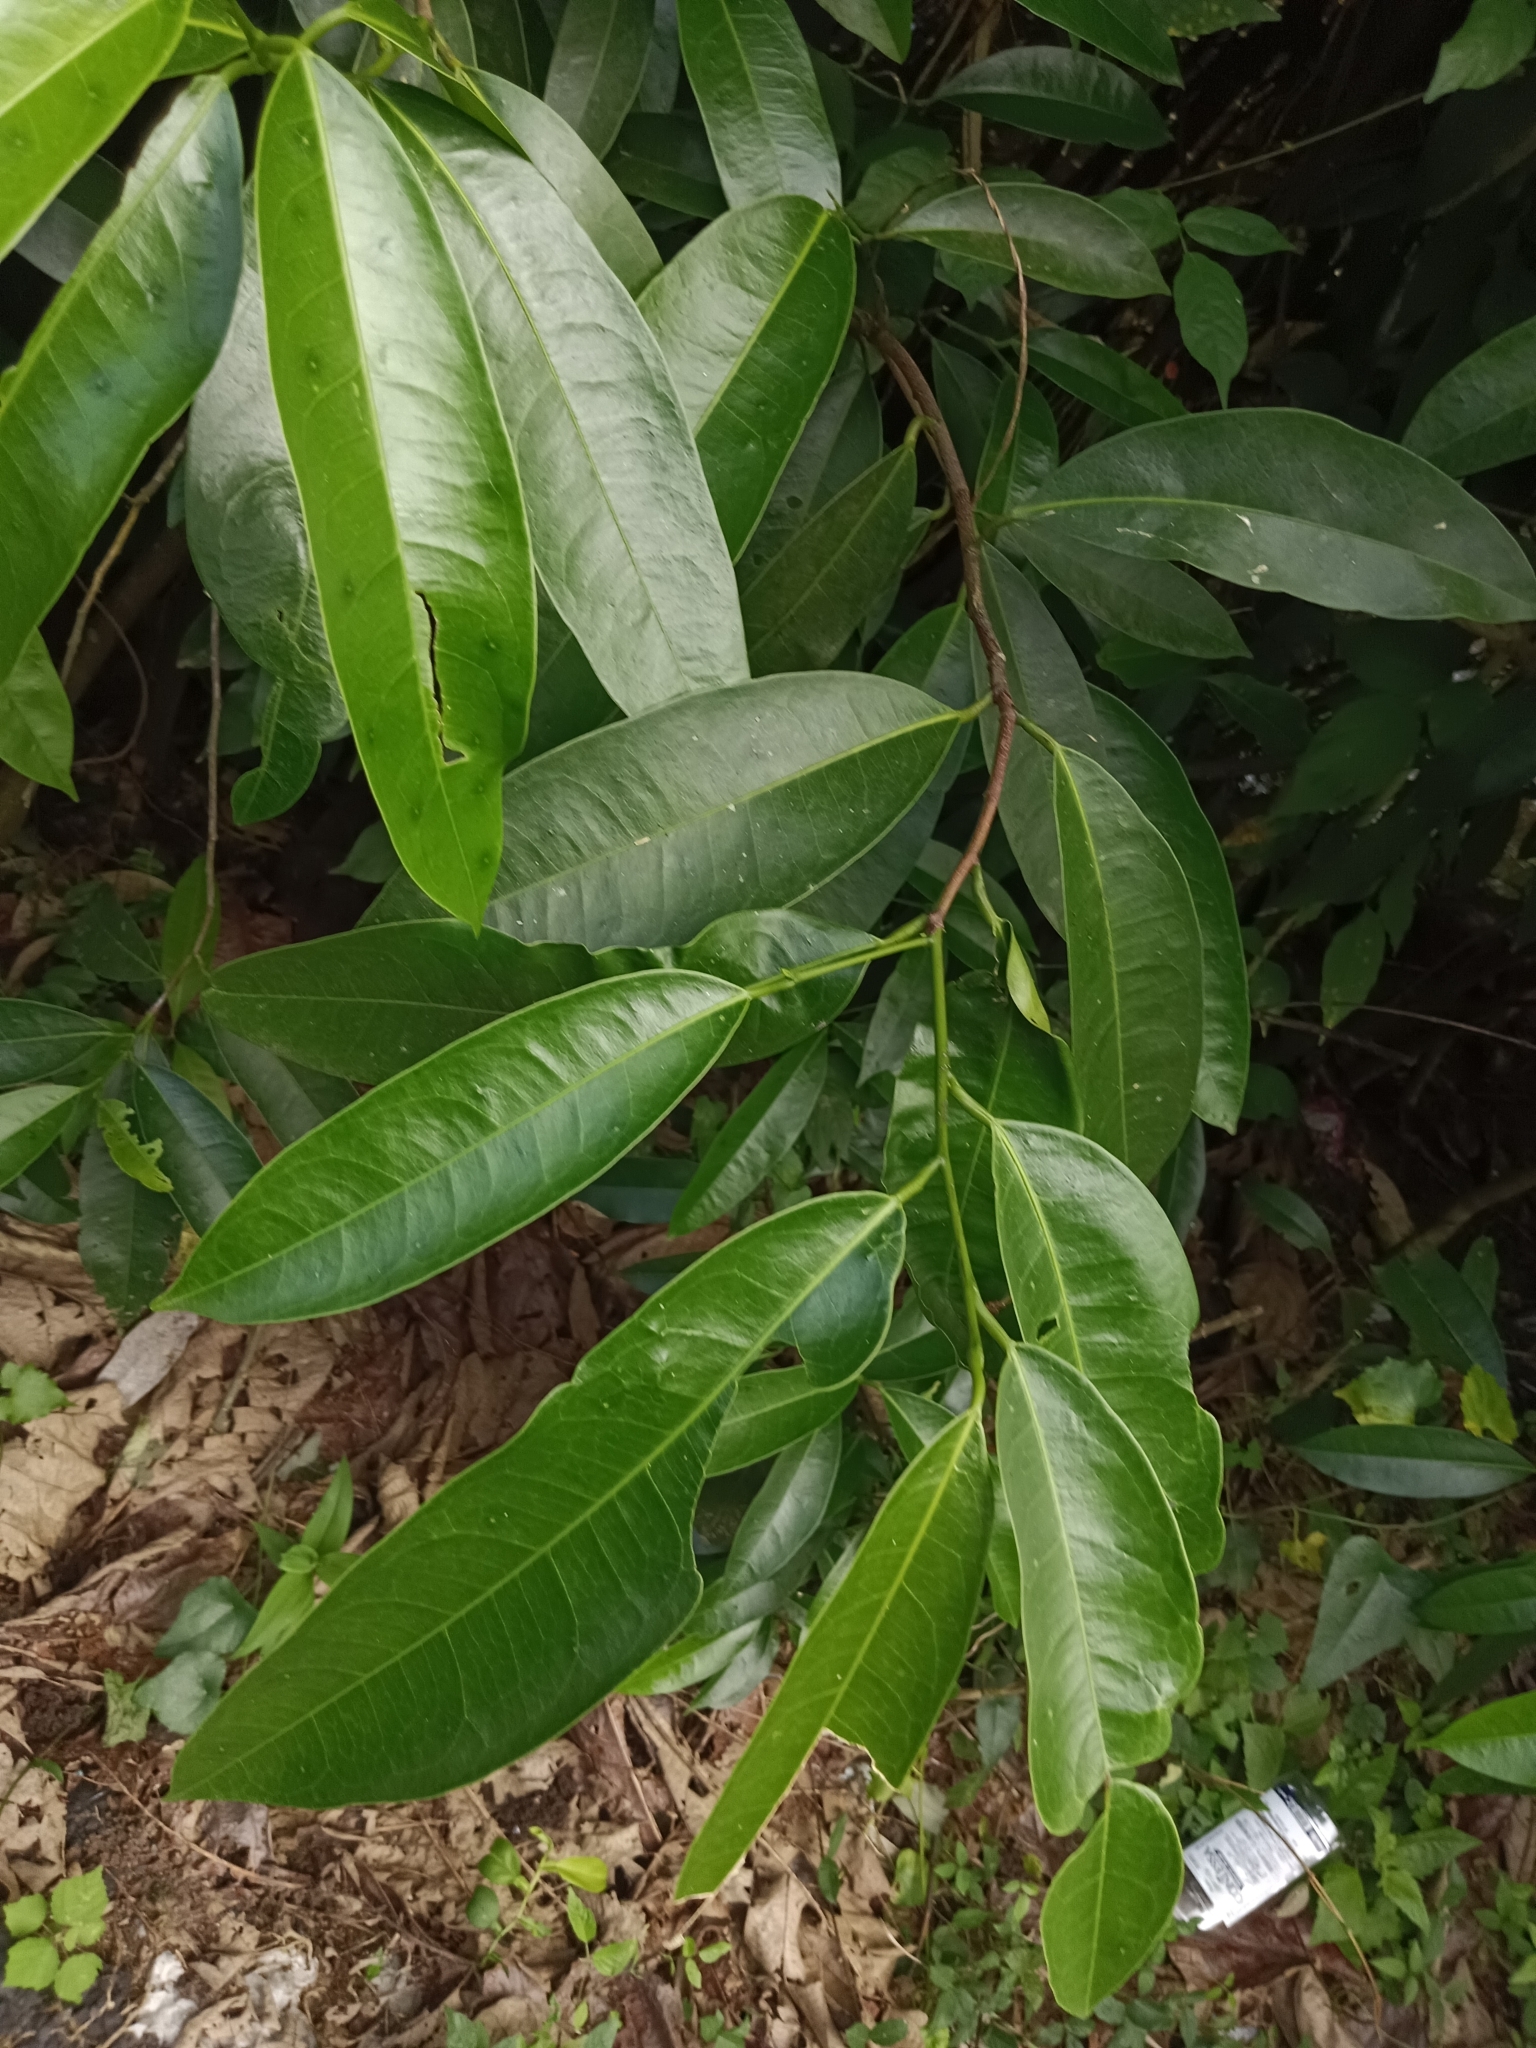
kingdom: Plantae
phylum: Tracheophyta
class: Magnoliopsida
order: Sapindales
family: Simaroubaceae
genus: Samadera
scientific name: Samadera indica
